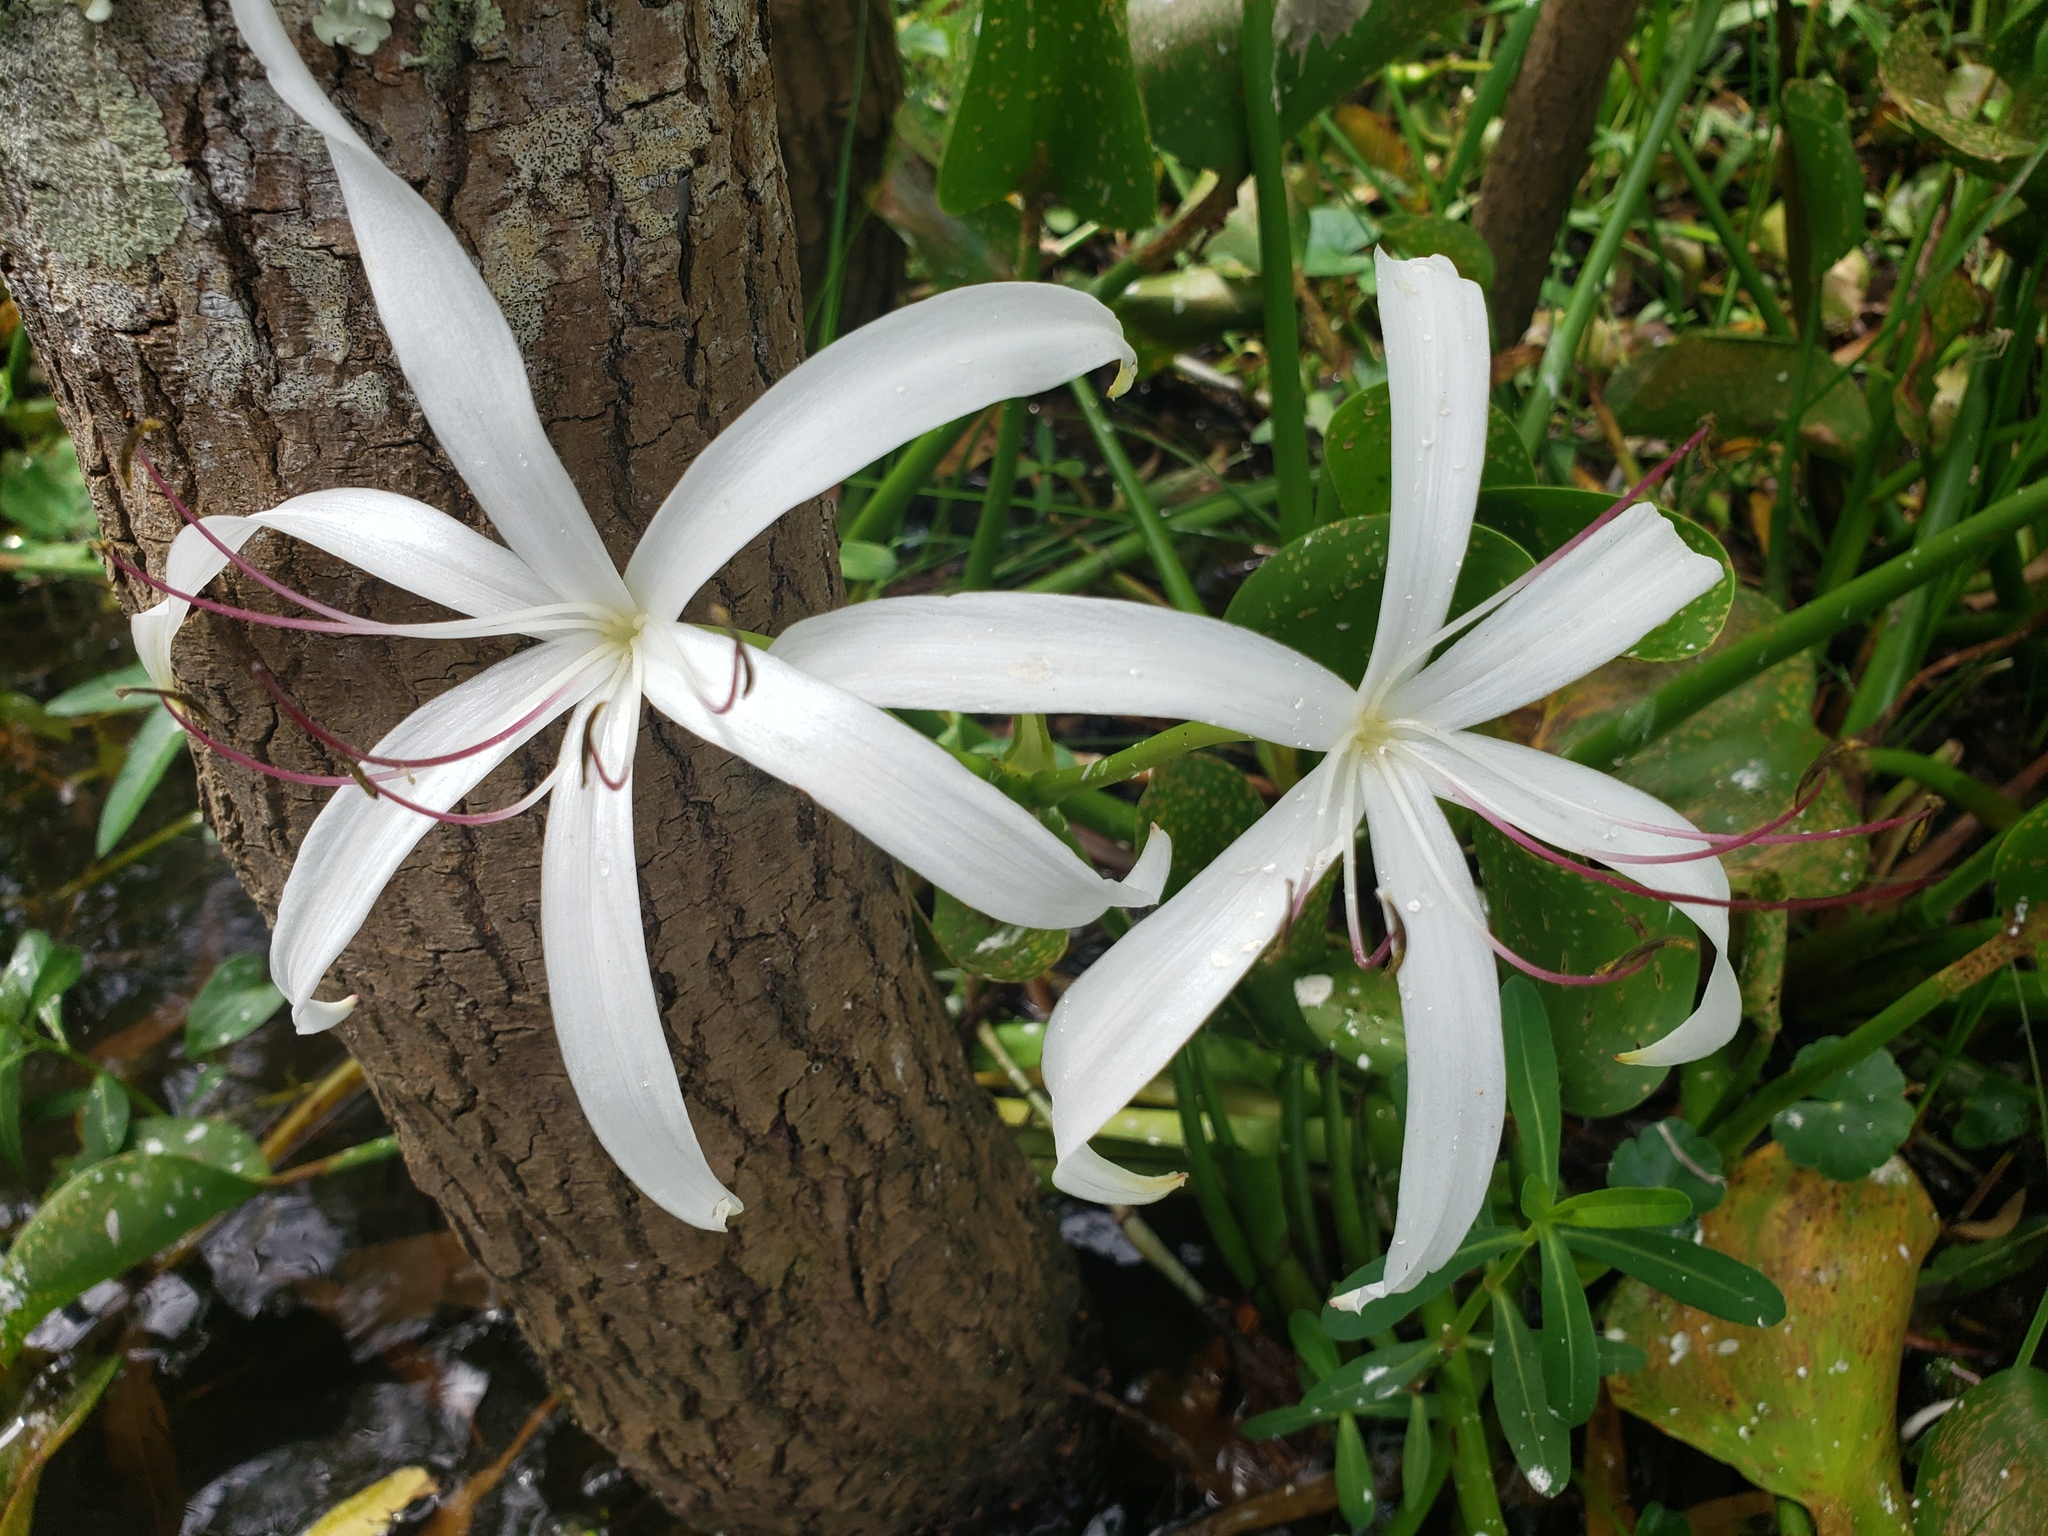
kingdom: Plantae
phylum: Tracheophyta
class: Liliopsida
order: Asparagales
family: Amaryllidaceae
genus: Crinum
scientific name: Crinum americanum
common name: Florida swamp-lily
